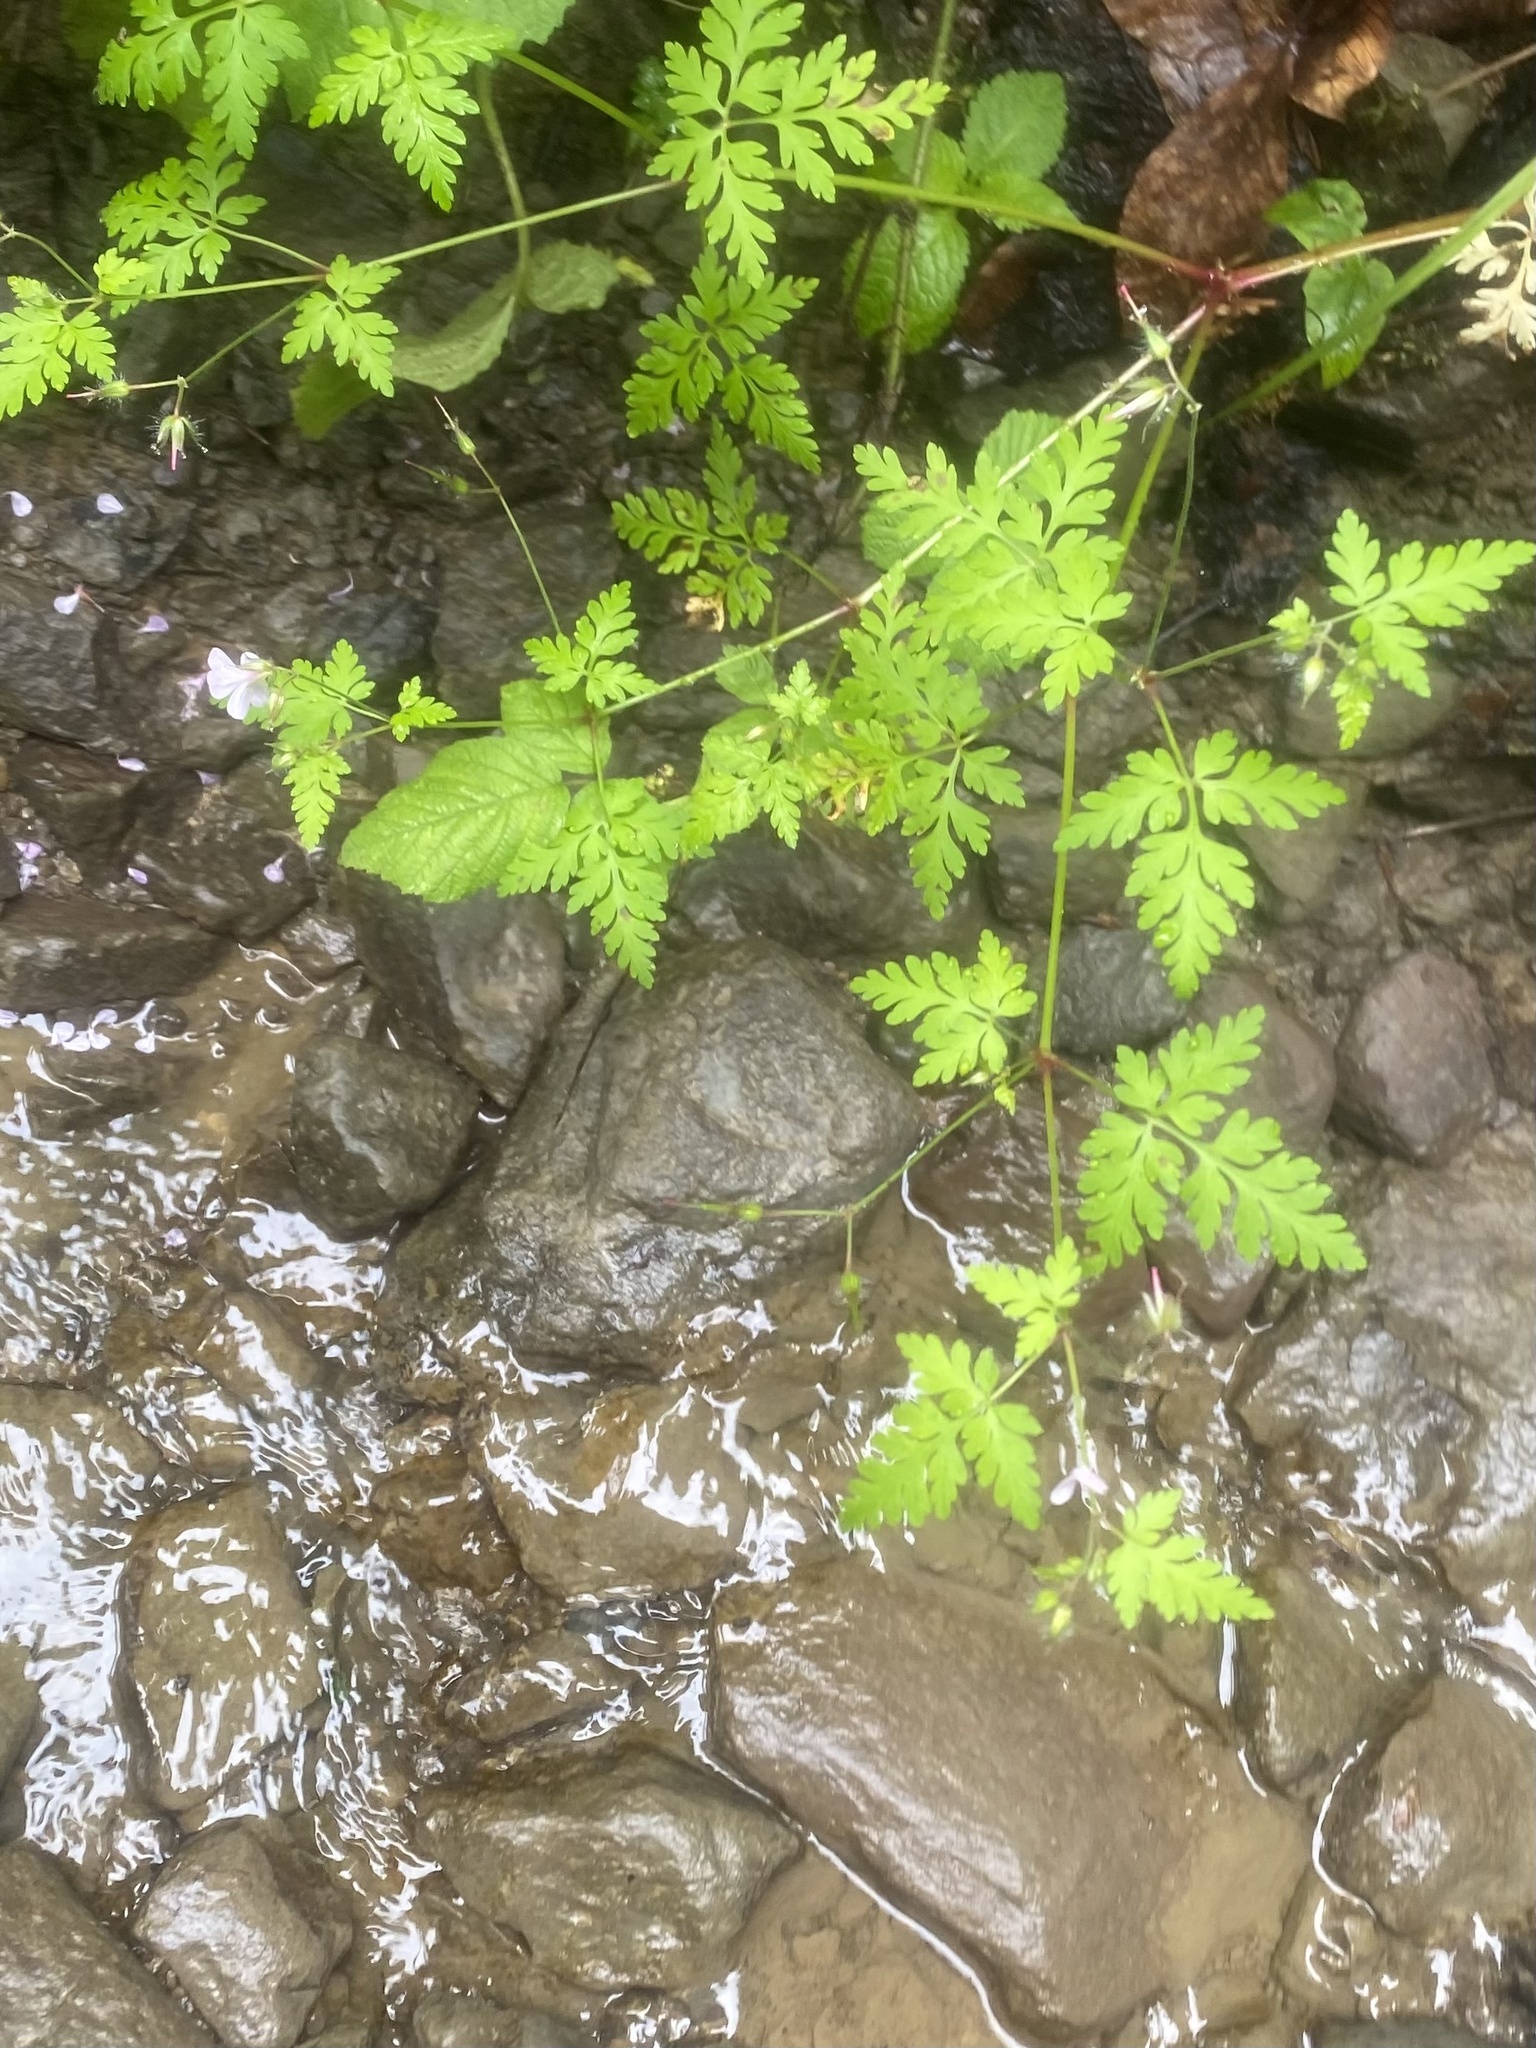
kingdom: Plantae
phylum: Tracheophyta
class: Magnoliopsida
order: Geraniales
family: Geraniaceae
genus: Geranium
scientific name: Geranium robertianum
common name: Herb-robert
